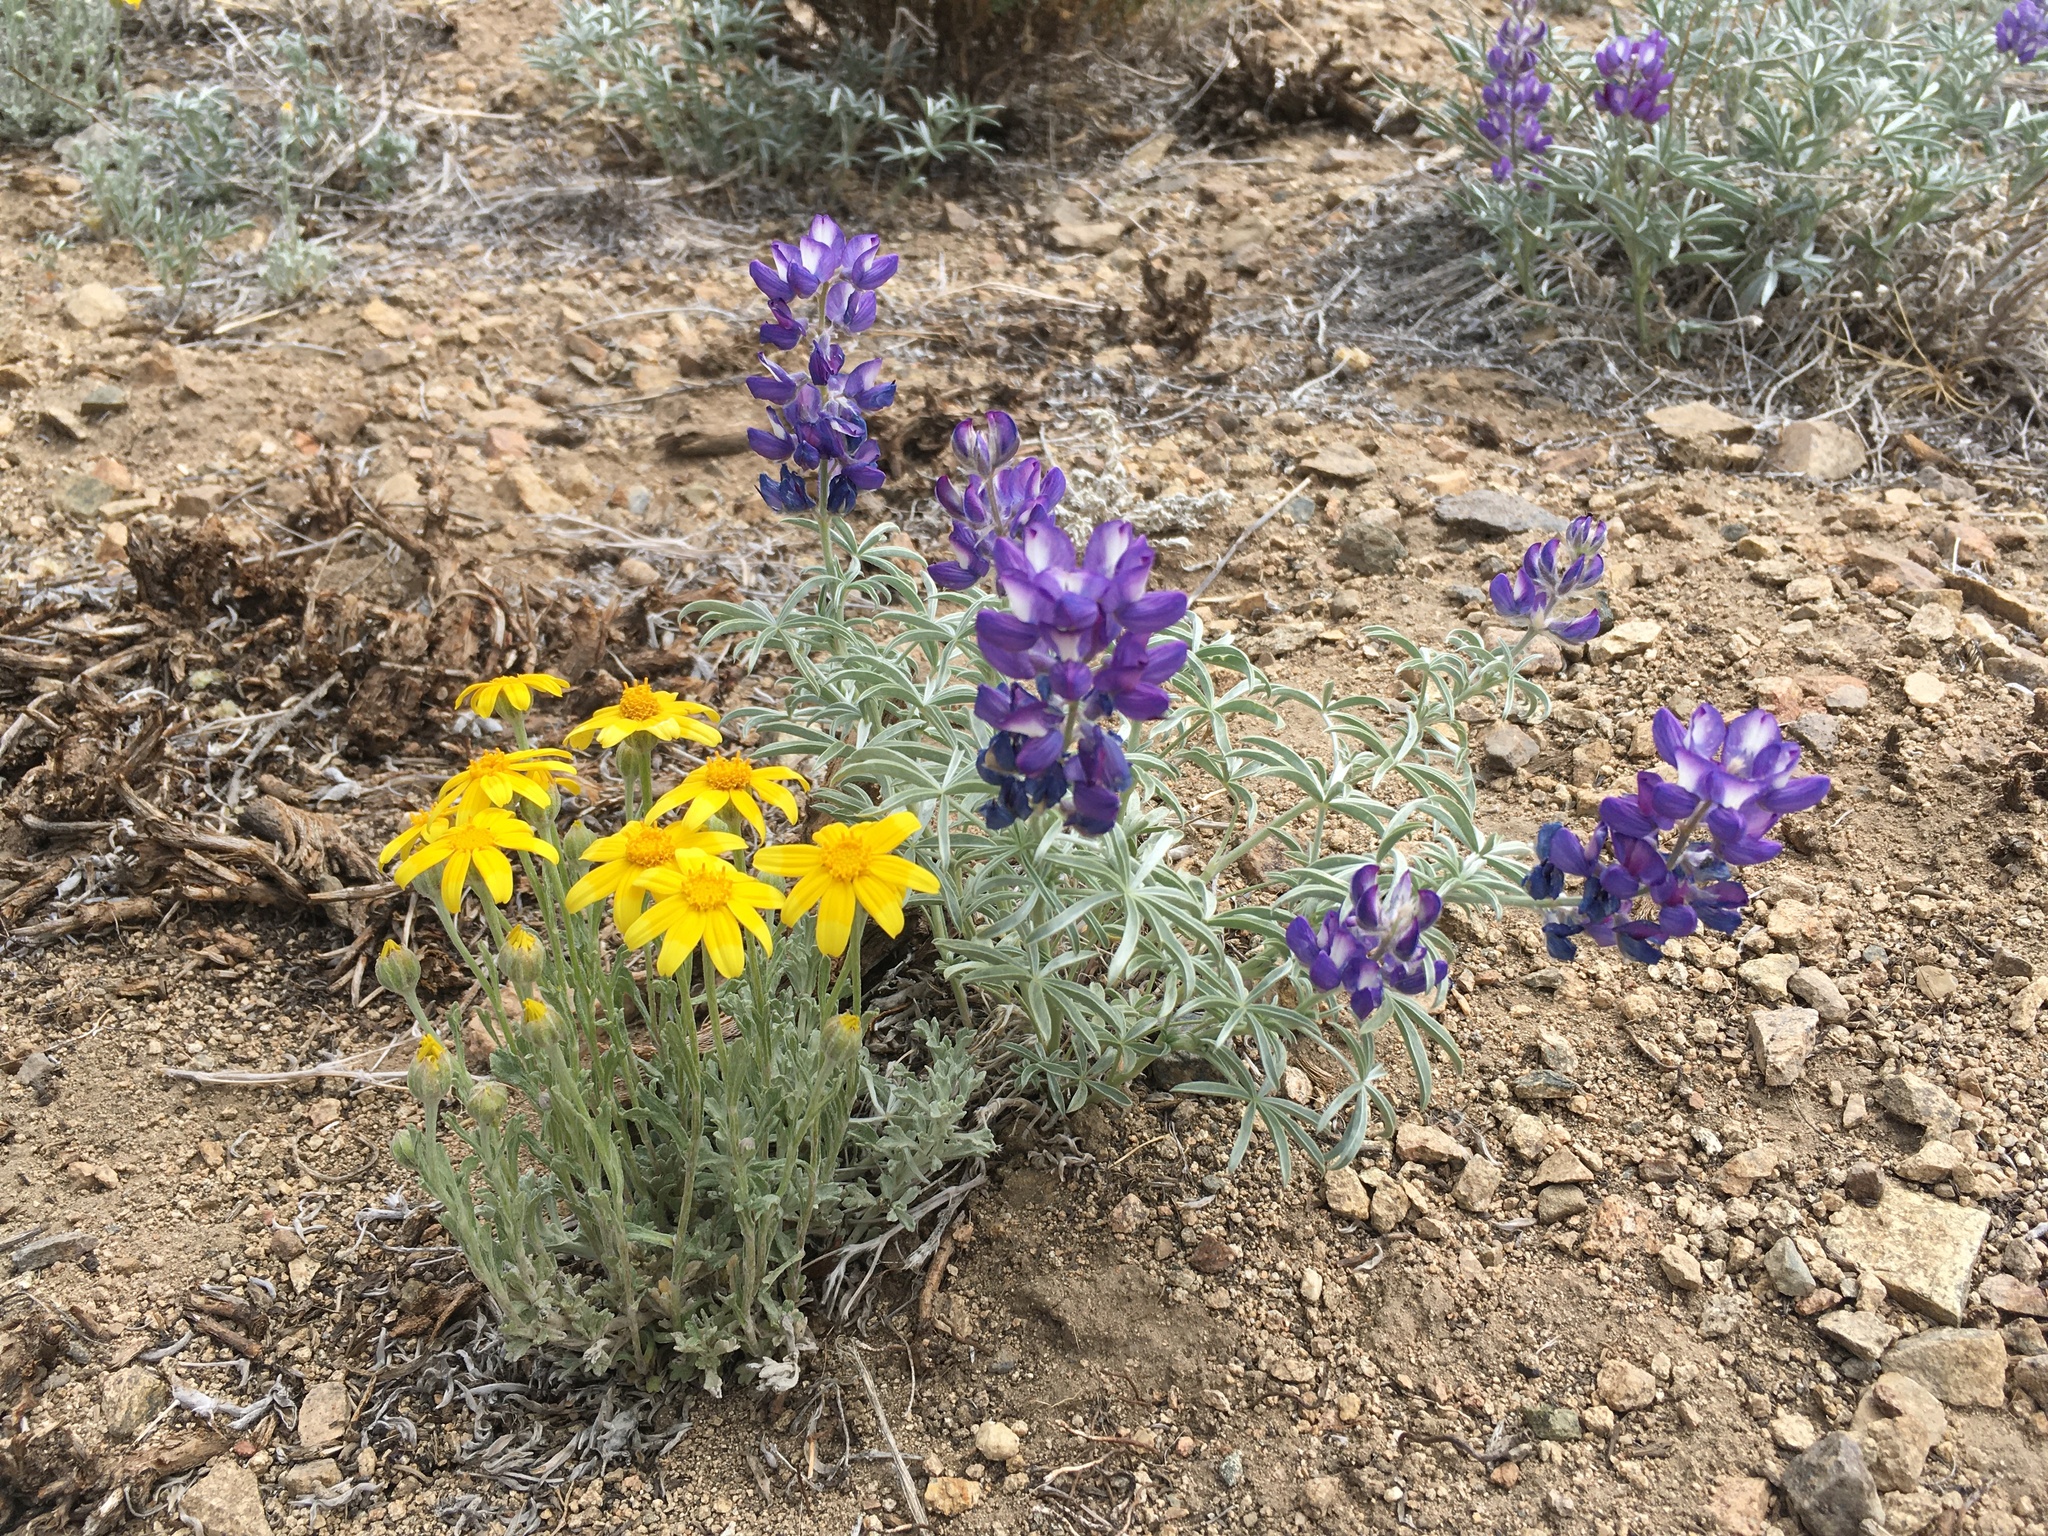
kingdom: Plantae
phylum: Tracheophyta
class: Magnoliopsida
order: Asterales
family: Asteraceae
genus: Eriophyllum
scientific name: Eriophyllum lanatum
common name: Common woolly-sunflower
